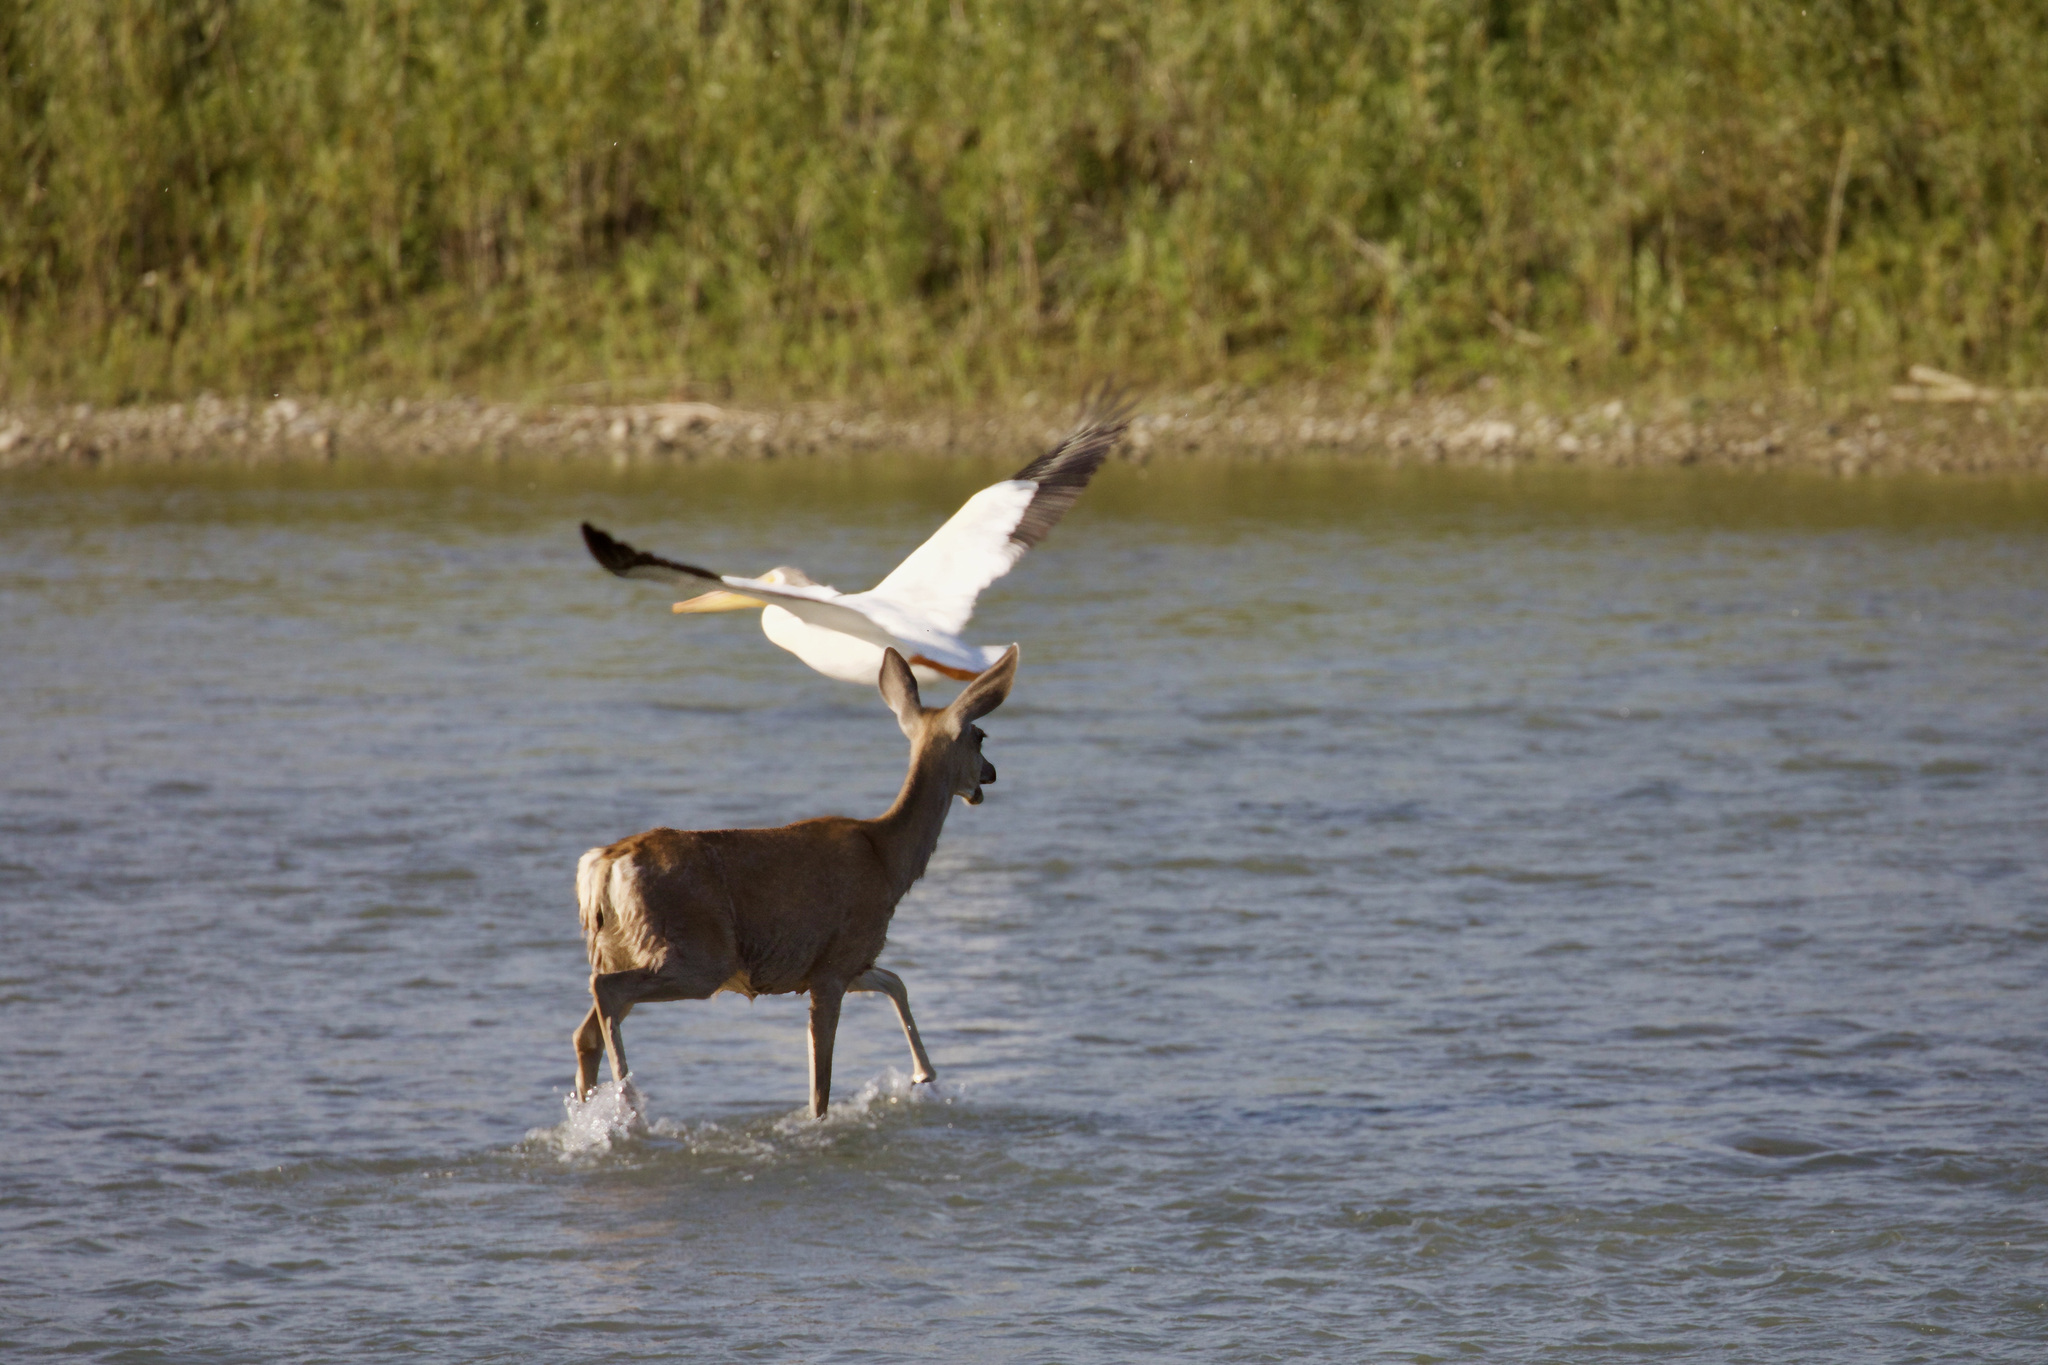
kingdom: Animalia
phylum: Chordata
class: Mammalia
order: Artiodactyla
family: Cervidae
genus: Odocoileus
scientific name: Odocoileus hemionus
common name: Mule deer
